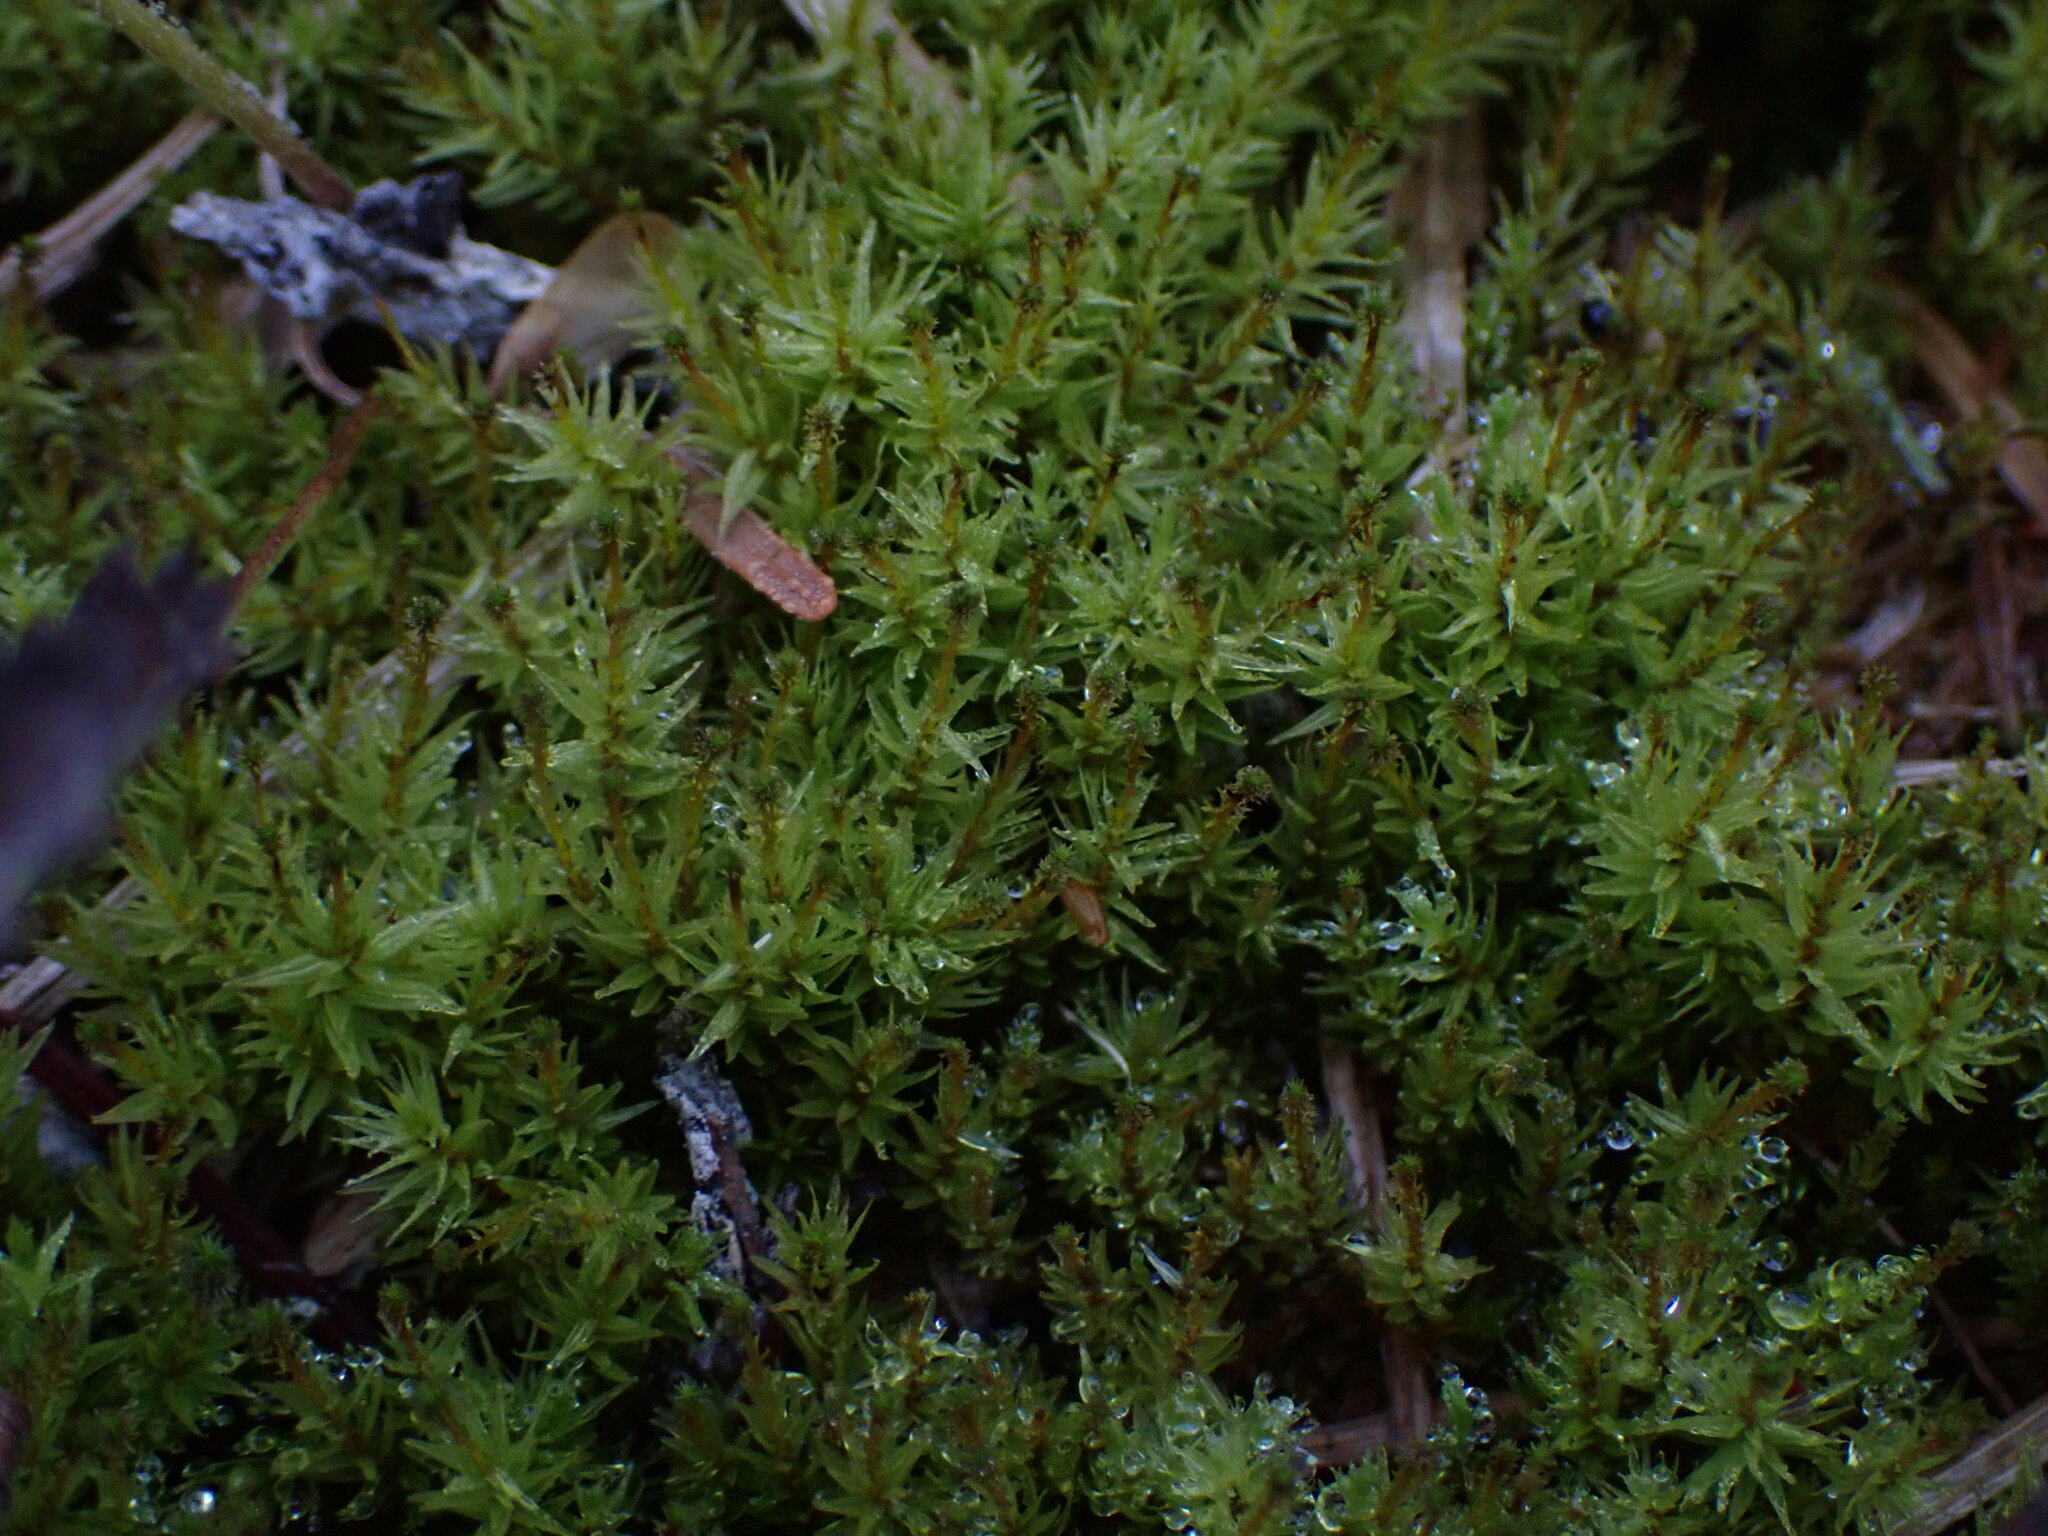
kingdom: Plantae
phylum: Bryophyta
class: Bryopsida
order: Aulacomniales
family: Aulacomniaceae
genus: Aulacomnium
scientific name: Aulacomnium palustre
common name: Bog groove-moss
